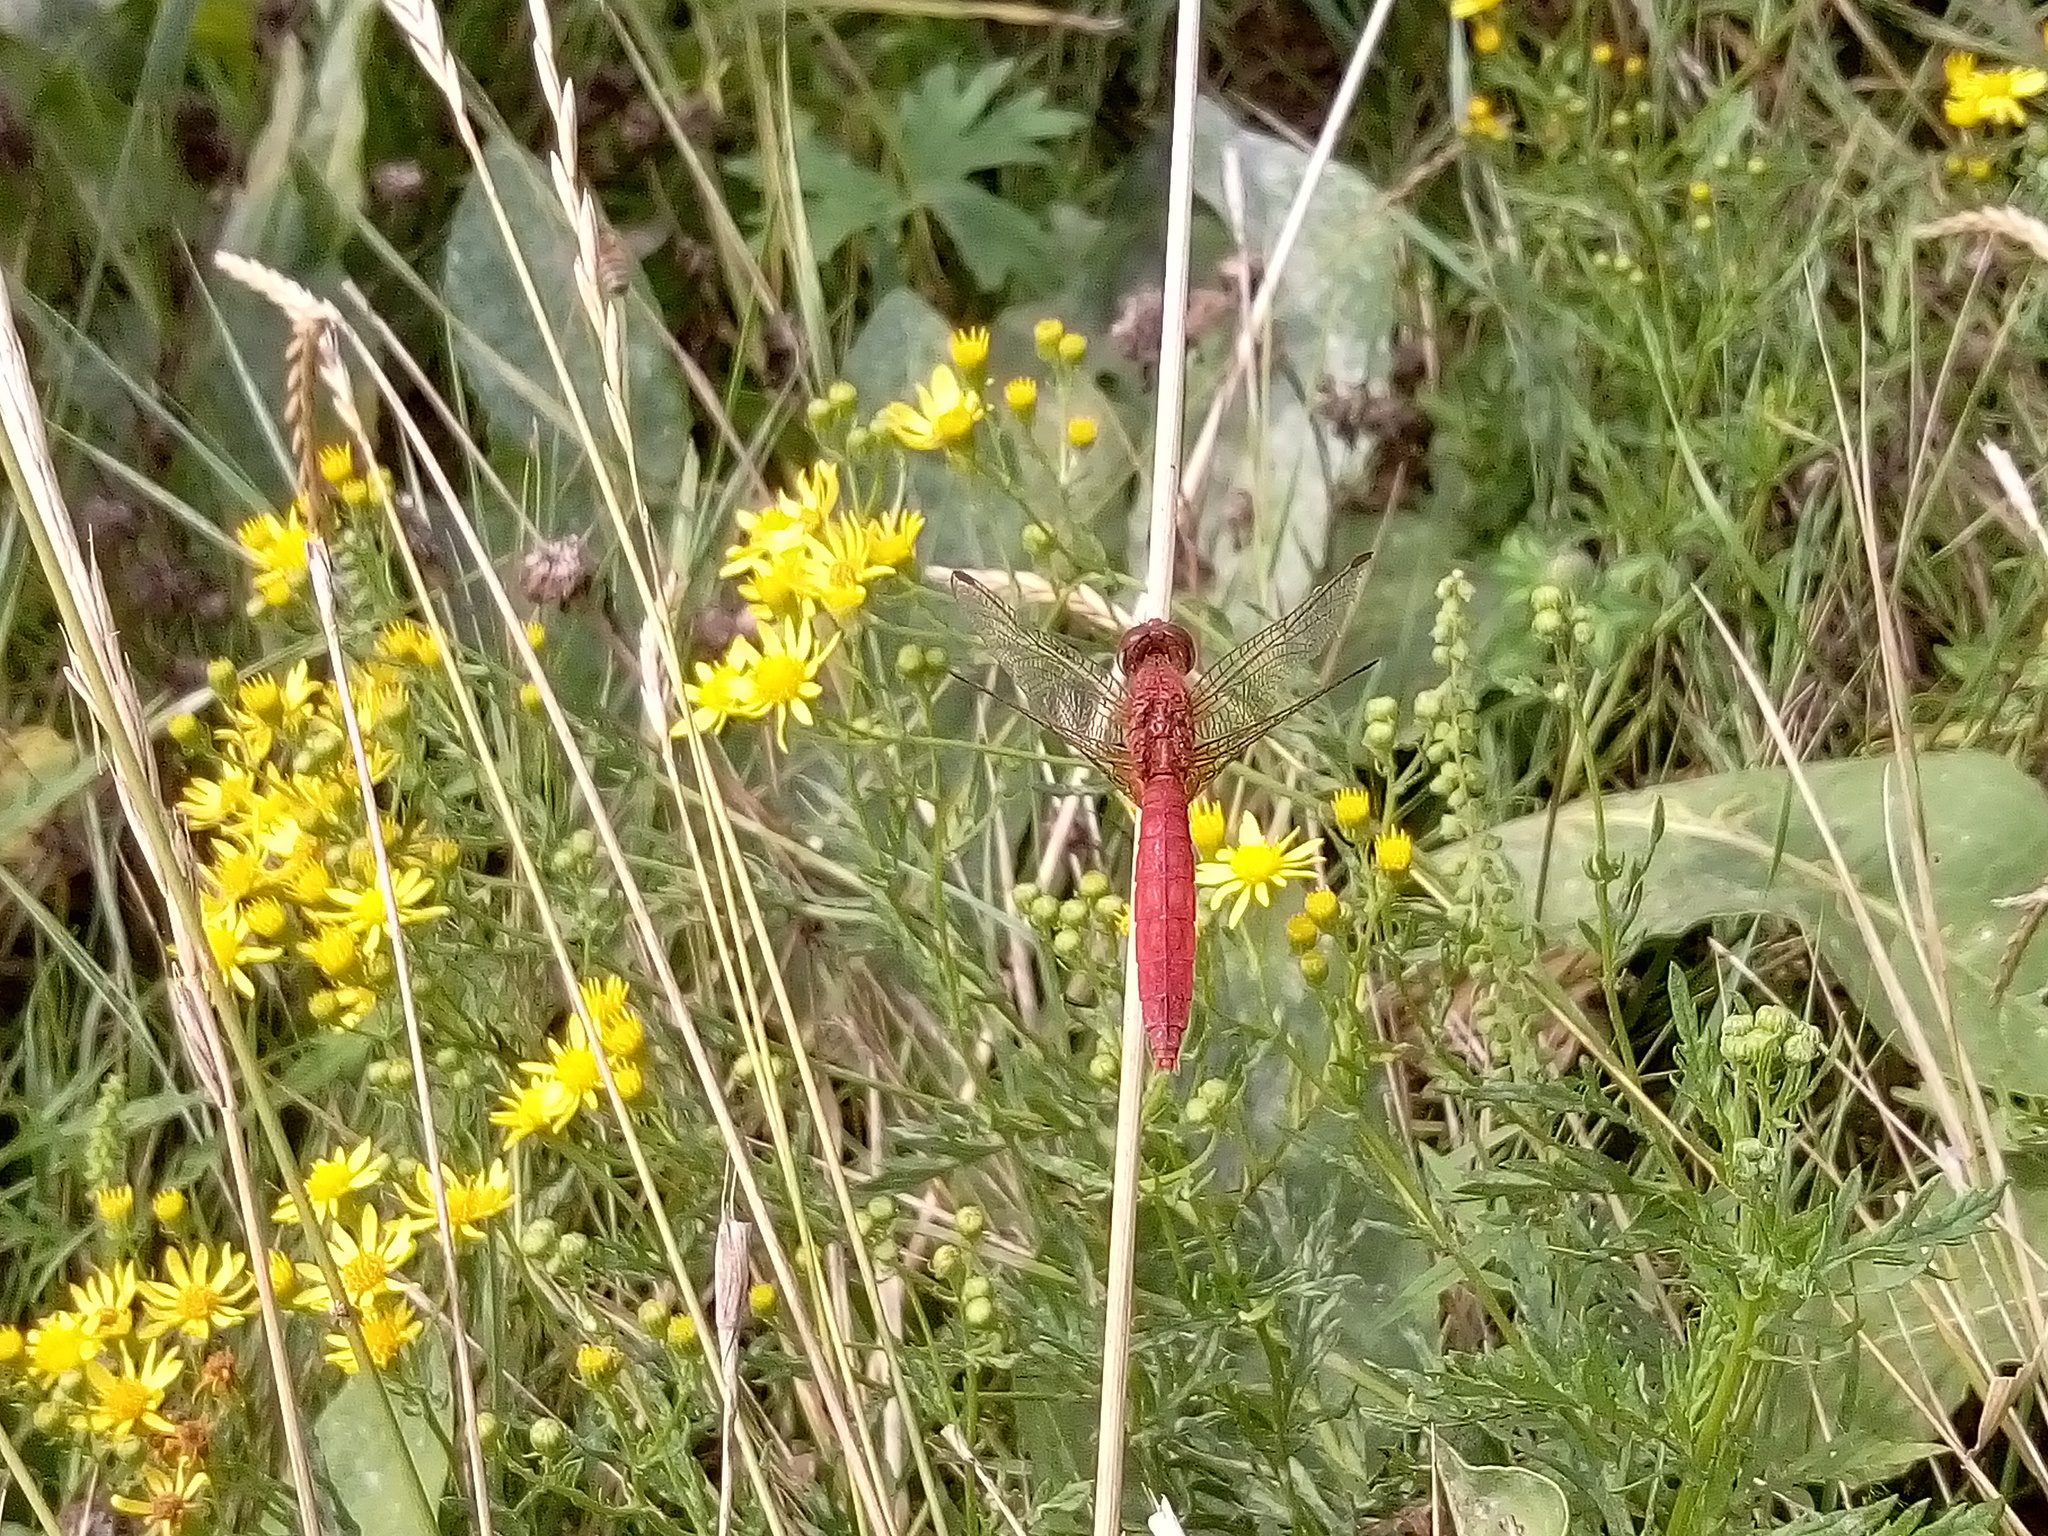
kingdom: Animalia
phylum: Arthropoda
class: Insecta
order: Odonata
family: Libellulidae
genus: Crocothemis
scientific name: Crocothemis erythraea
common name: Scarlet dragonfly
